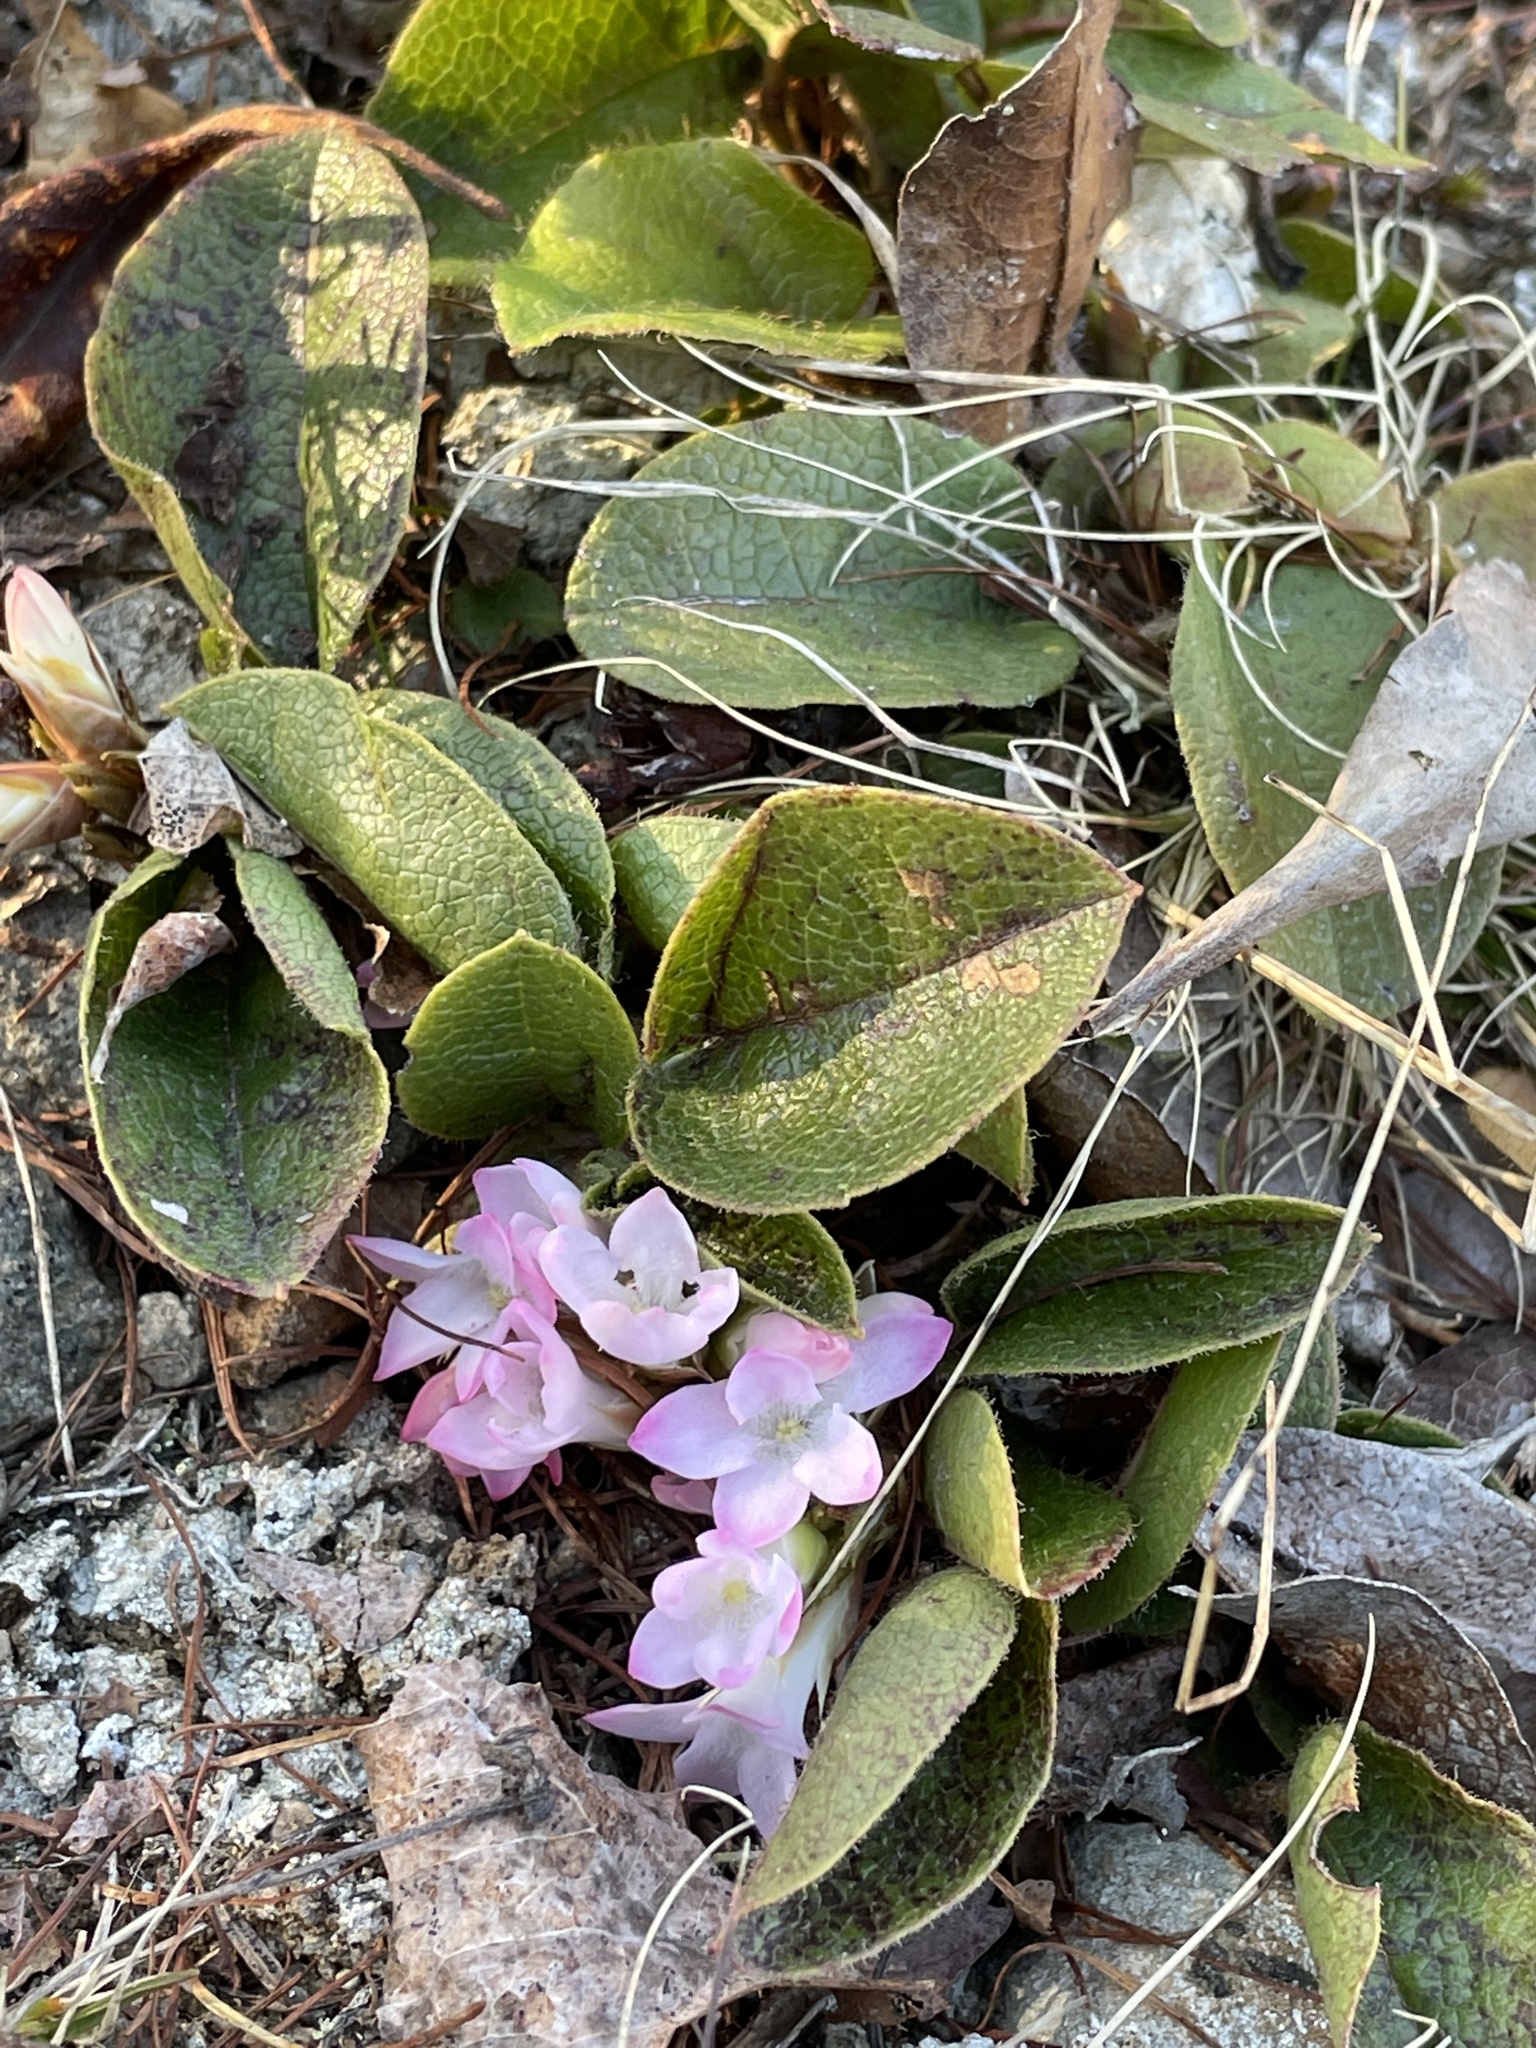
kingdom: Plantae
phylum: Tracheophyta
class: Magnoliopsida
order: Ericales
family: Ericaceae
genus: Epigaea
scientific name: Epigaea repens
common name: Gravelroot
